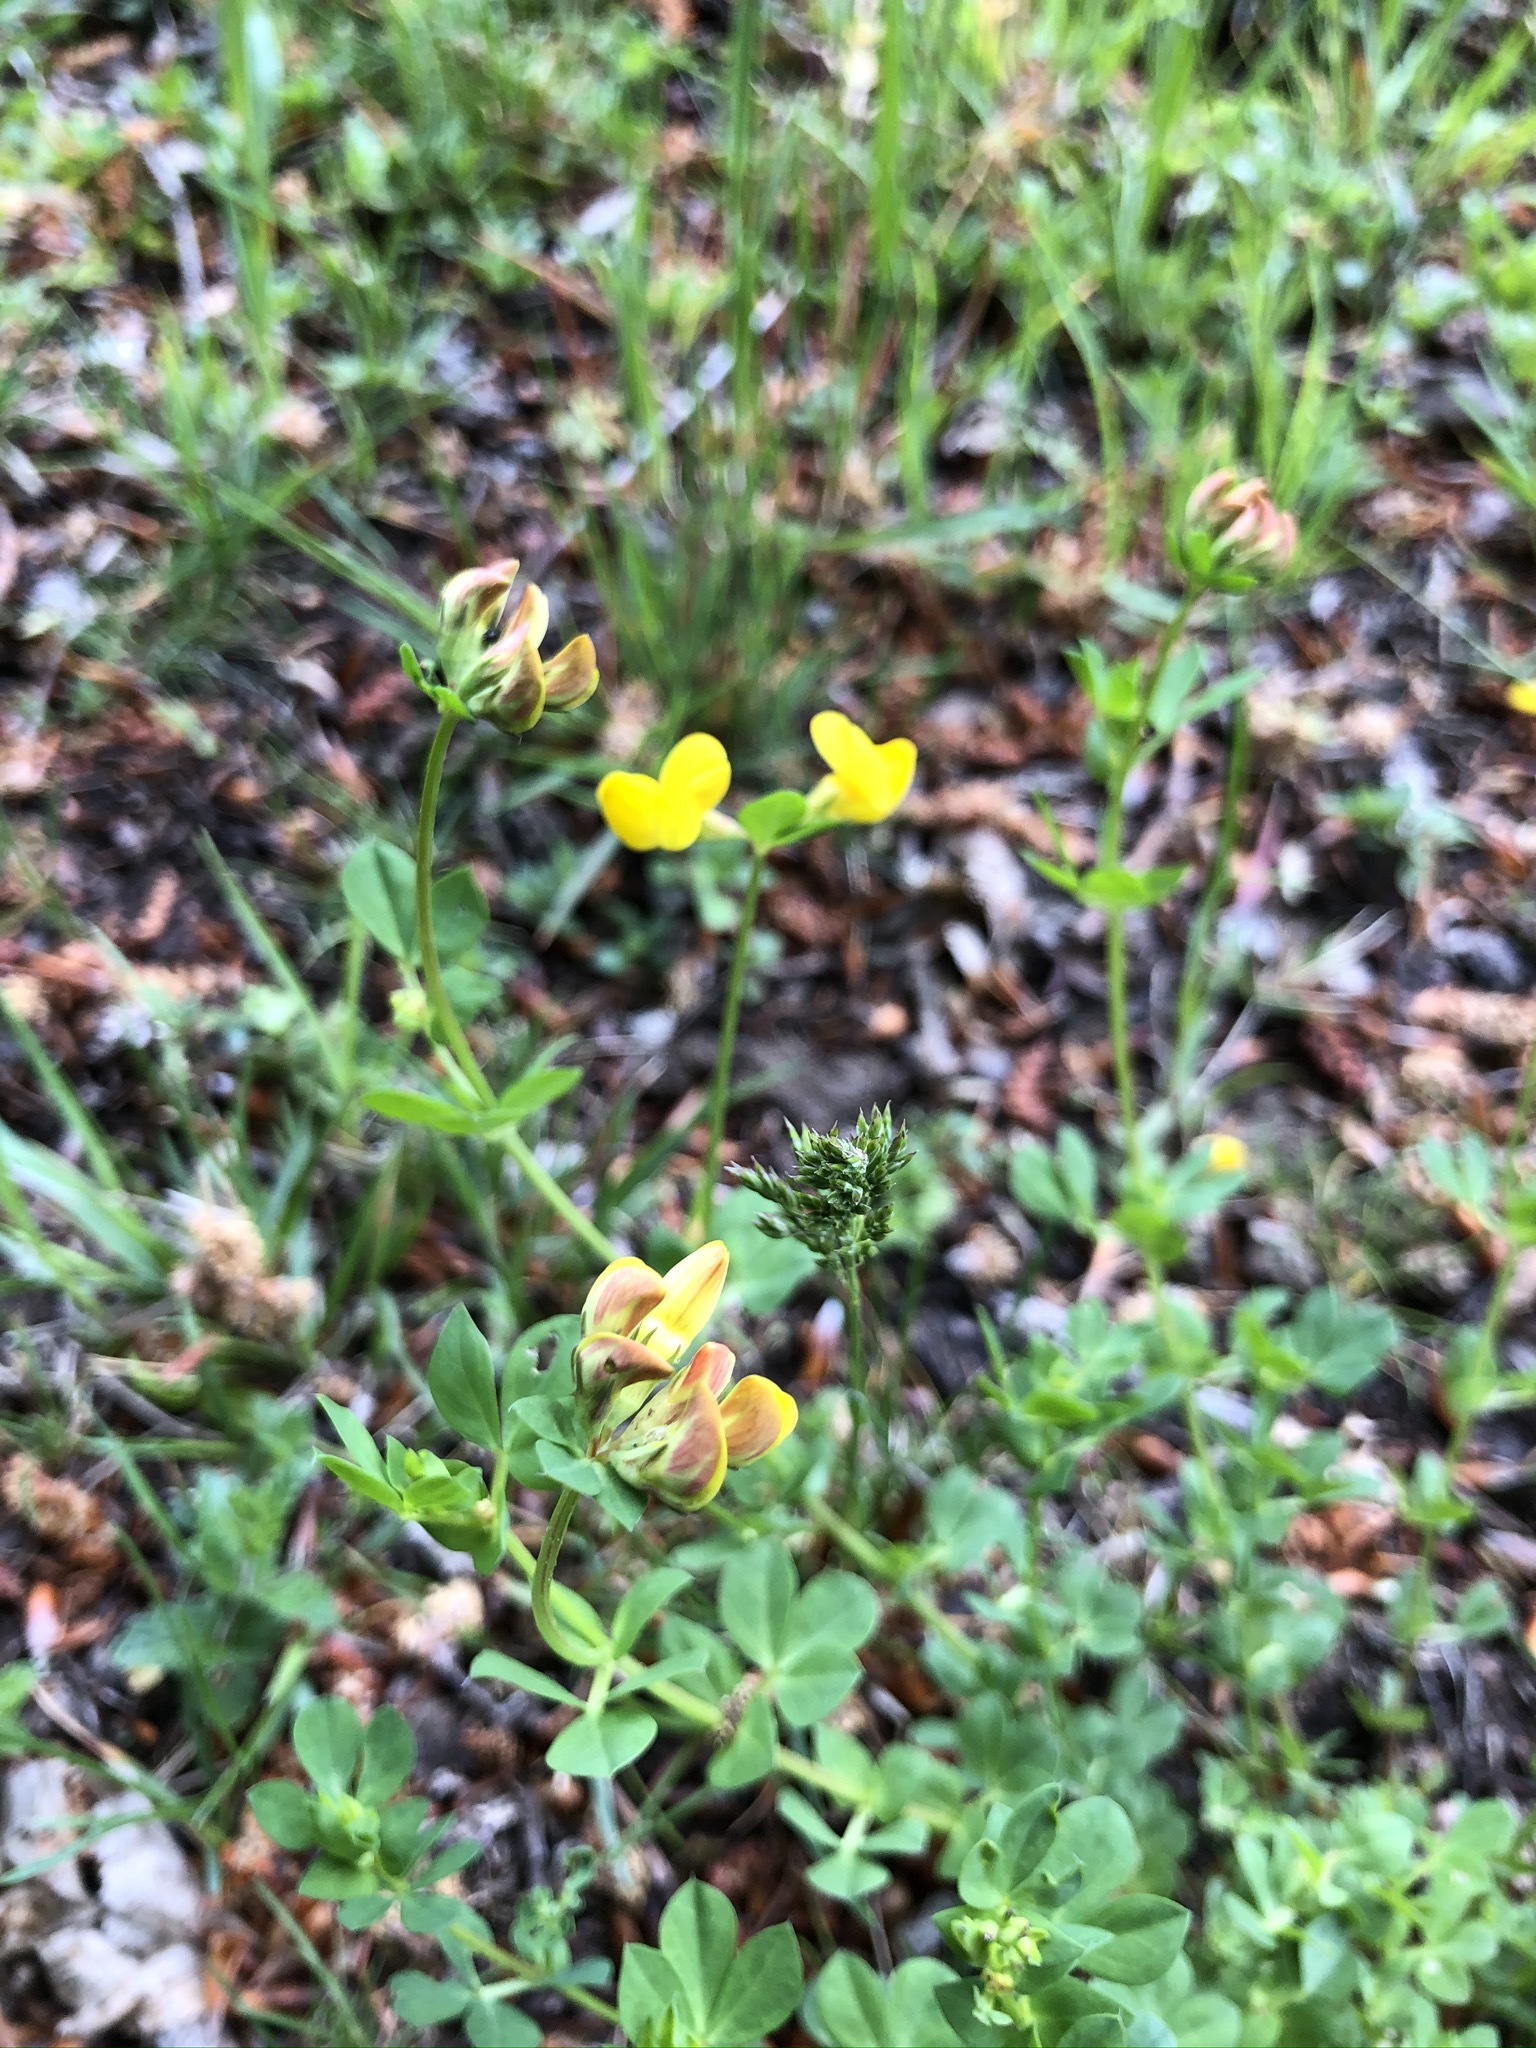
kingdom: Plantae
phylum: Tracheophyta
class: Magnoliopsida
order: Fabales
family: Fabaceae
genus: Lotus
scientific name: Lotus corniculatus
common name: Common bird's-foot-trefoil
